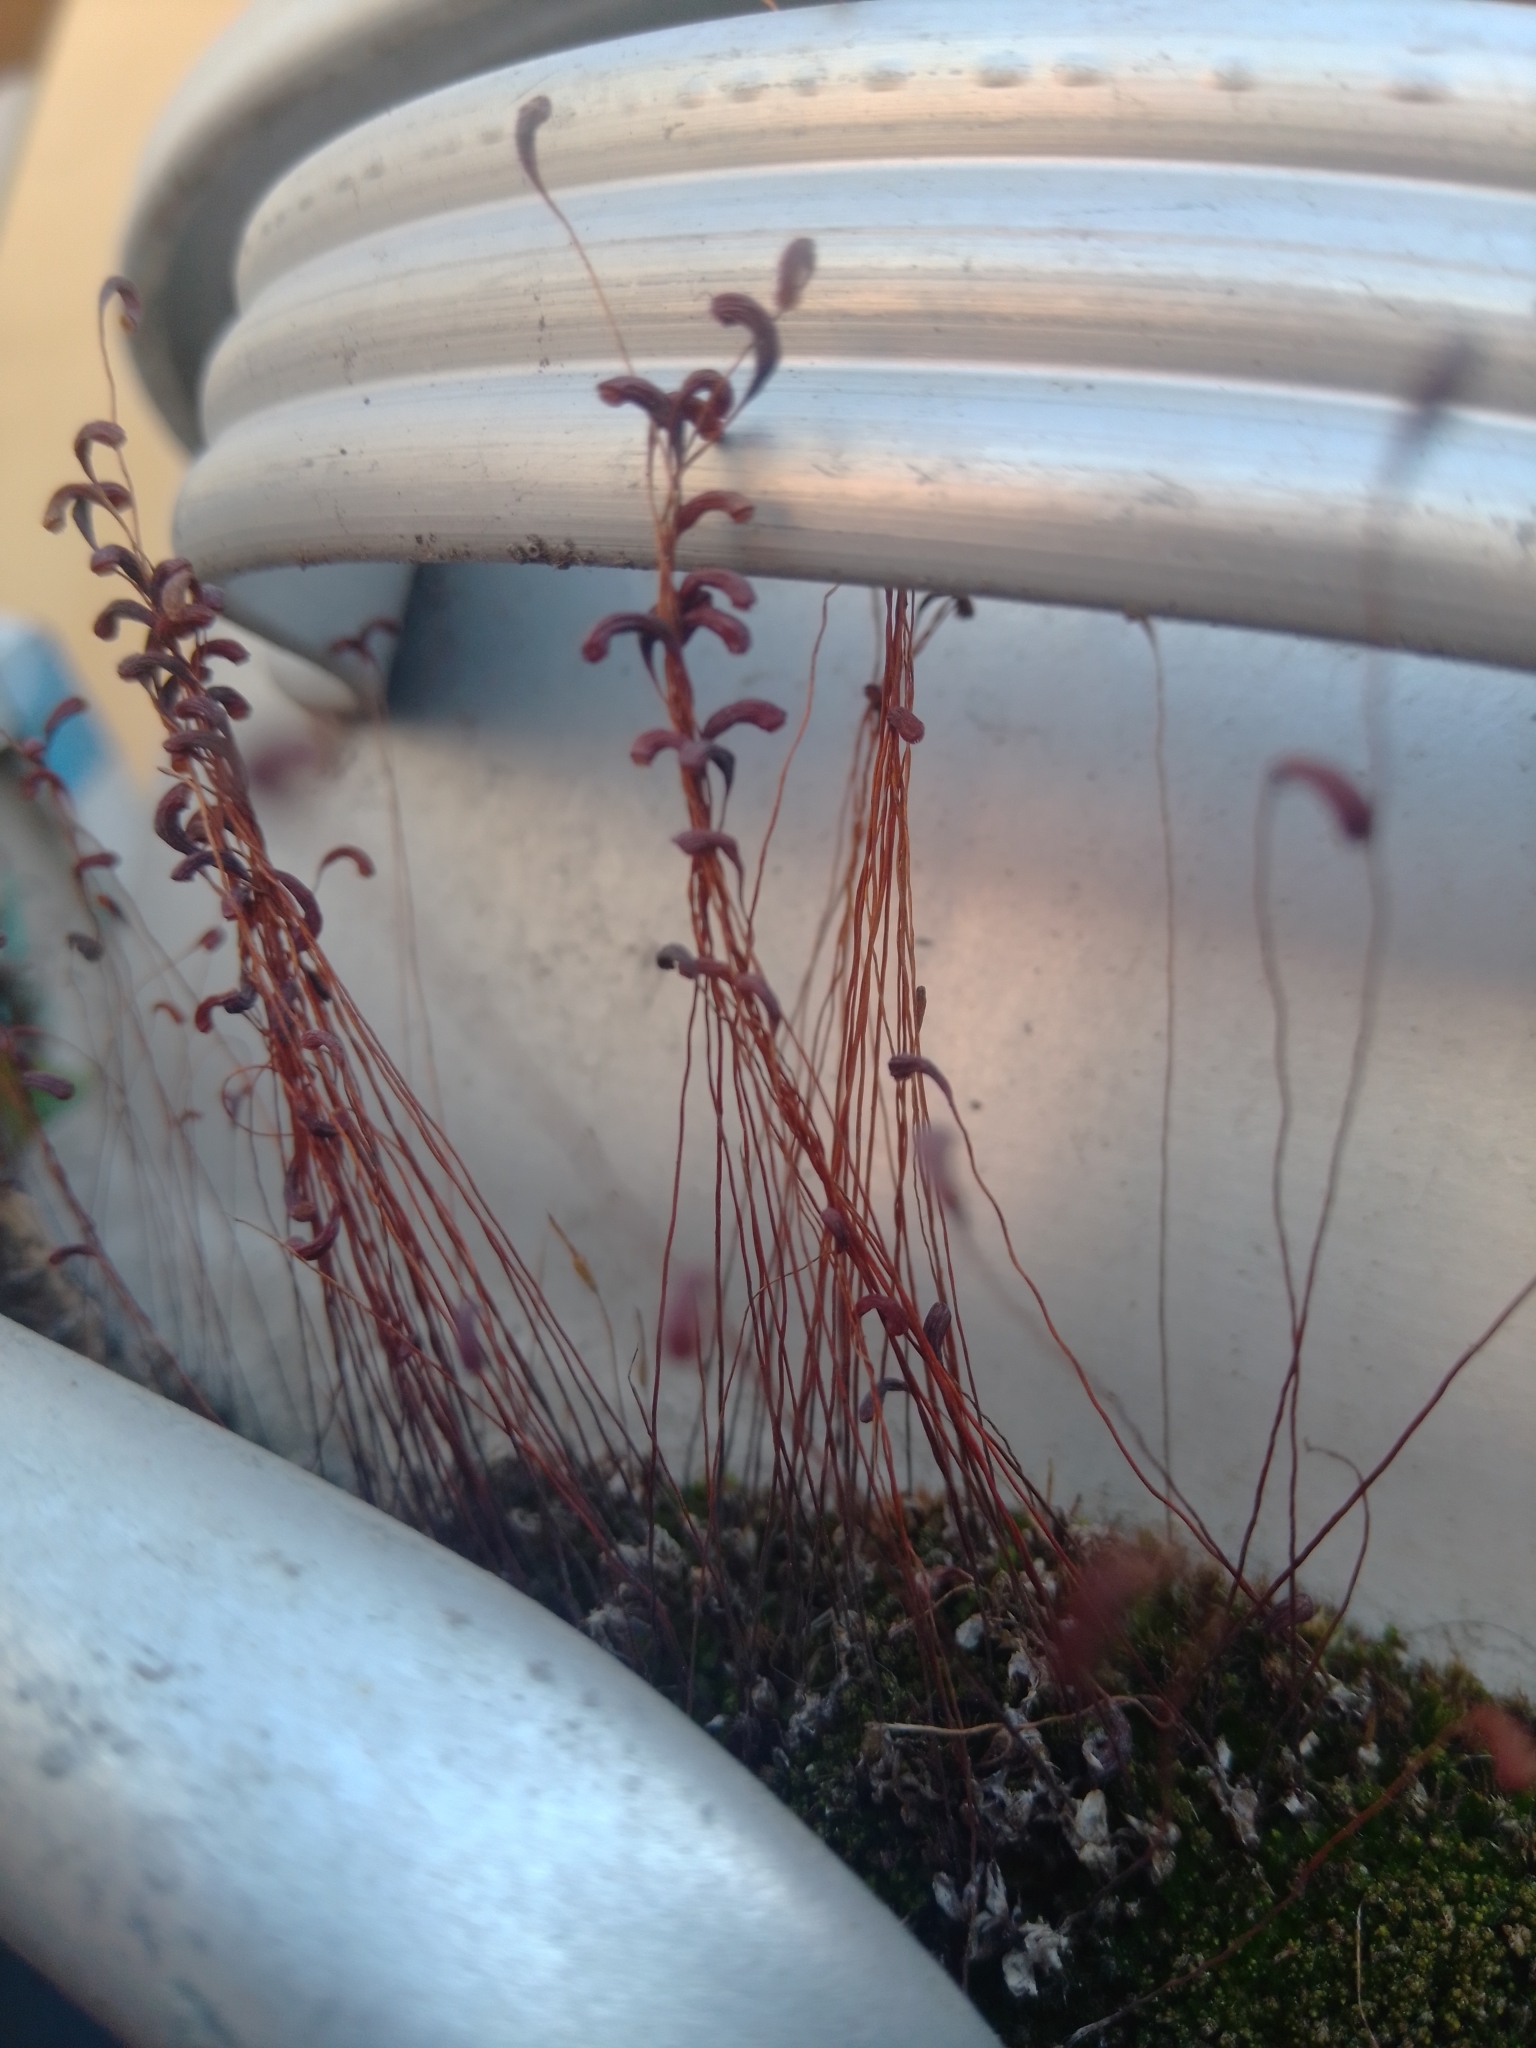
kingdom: Plantae
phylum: Bryophyta
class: Bryopsida
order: Pottiales
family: Pottiaceae
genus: Tortula
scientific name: Tortula muralis
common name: Wall screw-moss
